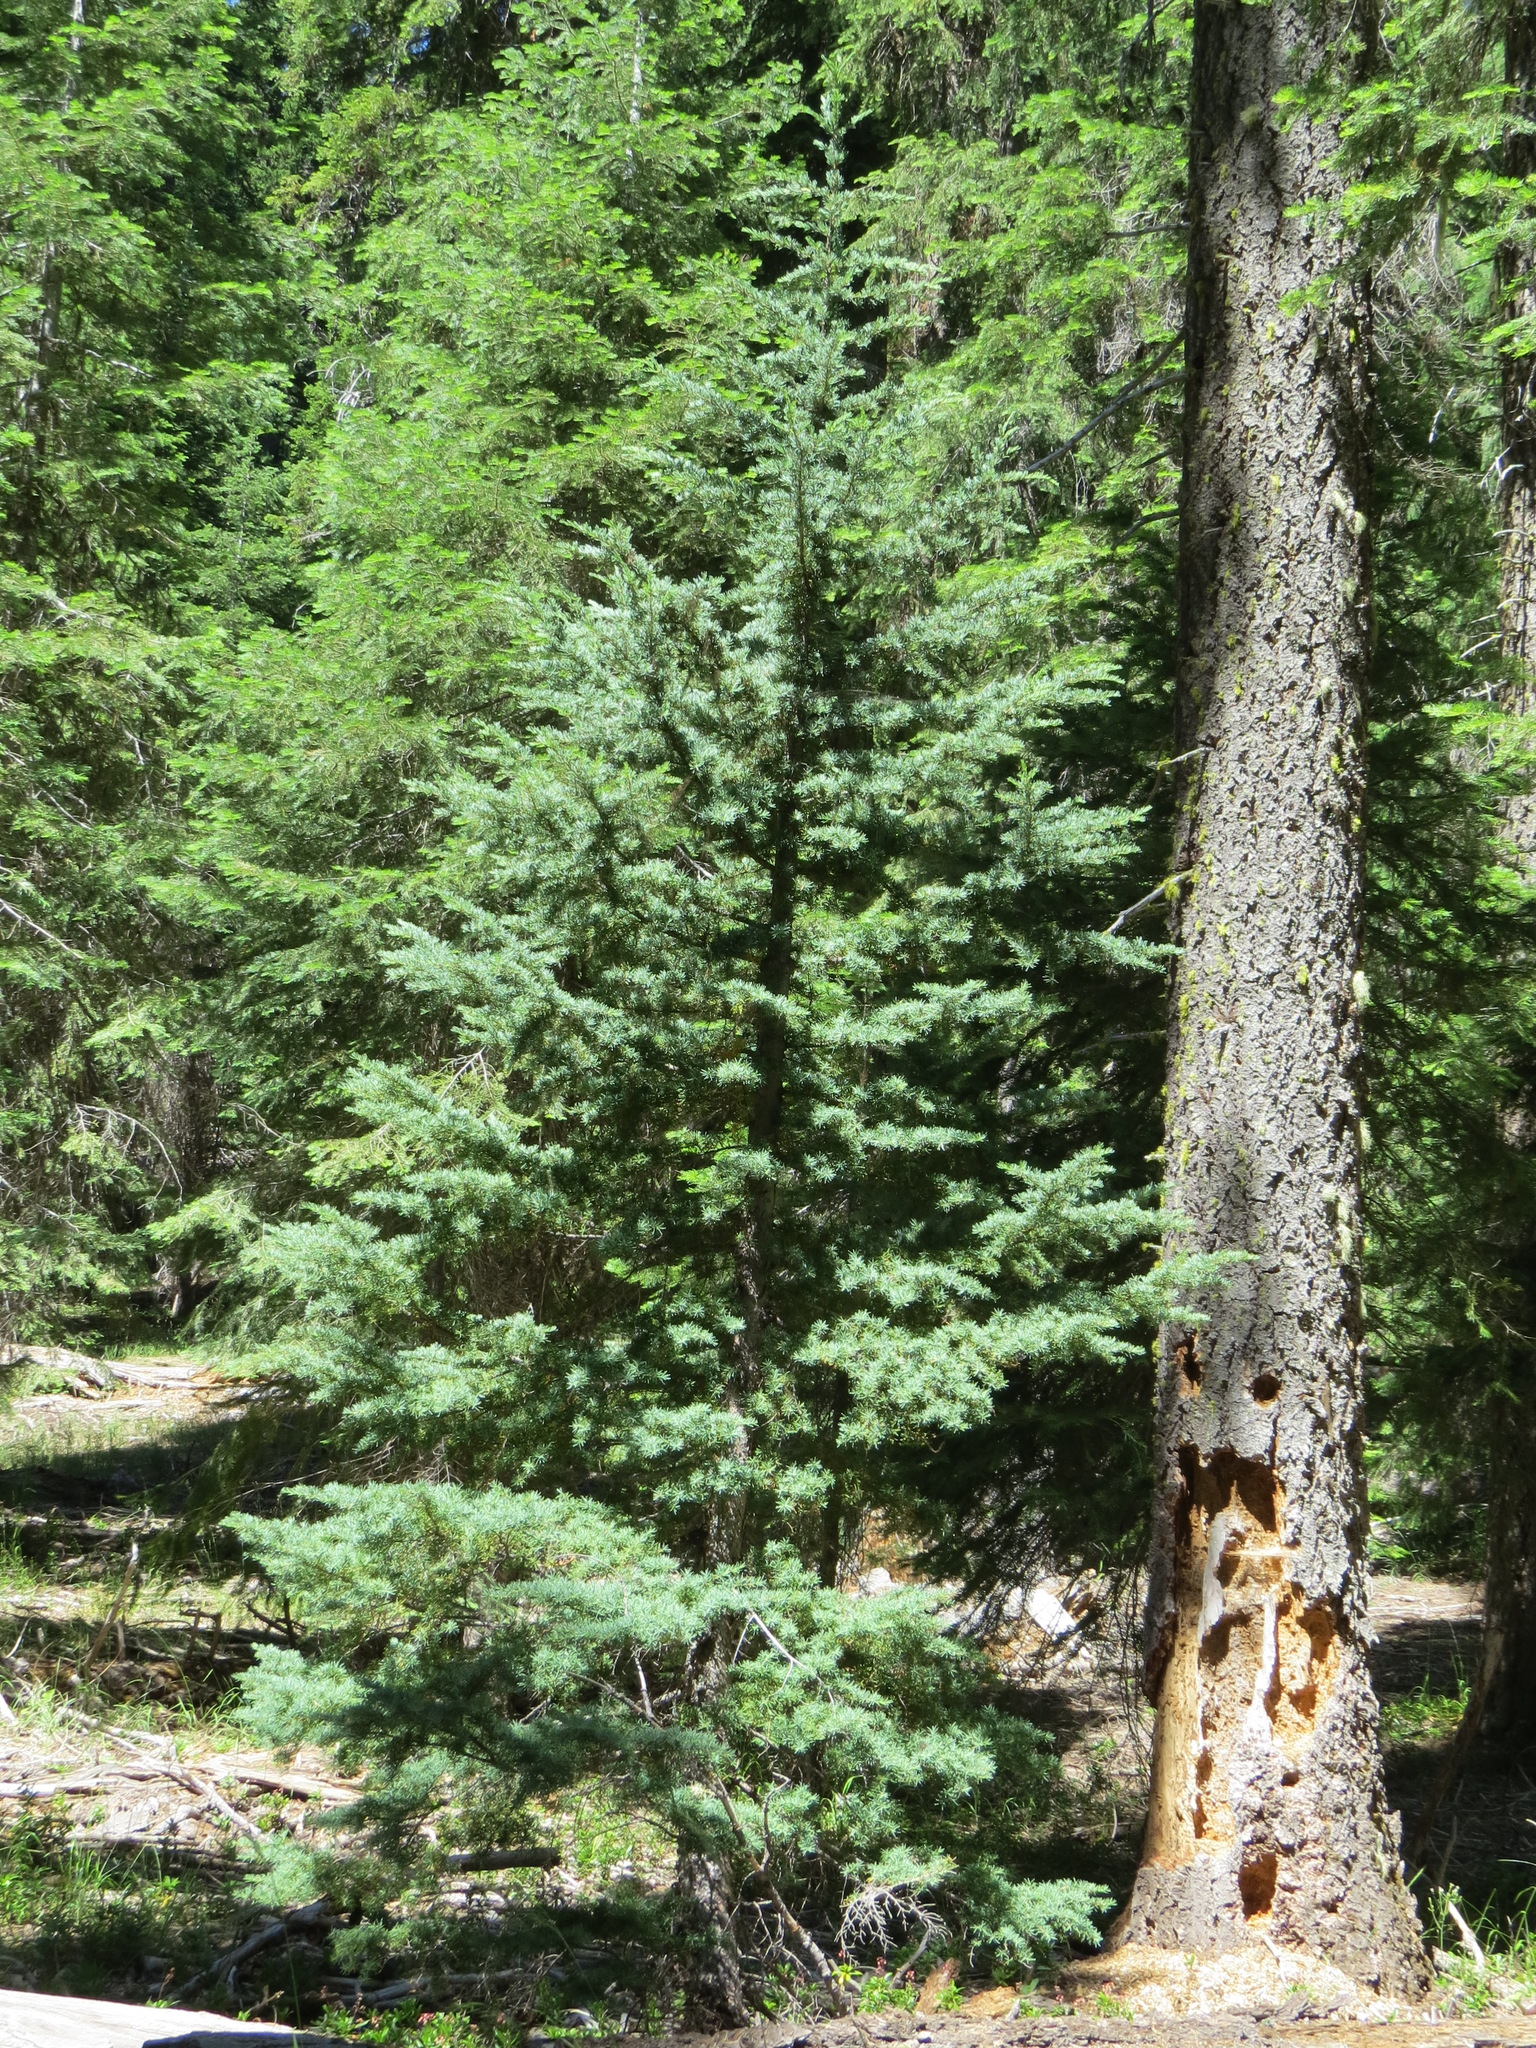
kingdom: Plantae
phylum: Tracheophyta
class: Pinopsida
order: Pinales
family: Pinaceae
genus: Tsuga
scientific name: Tsuga mertensiana
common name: Mountain hemlock
